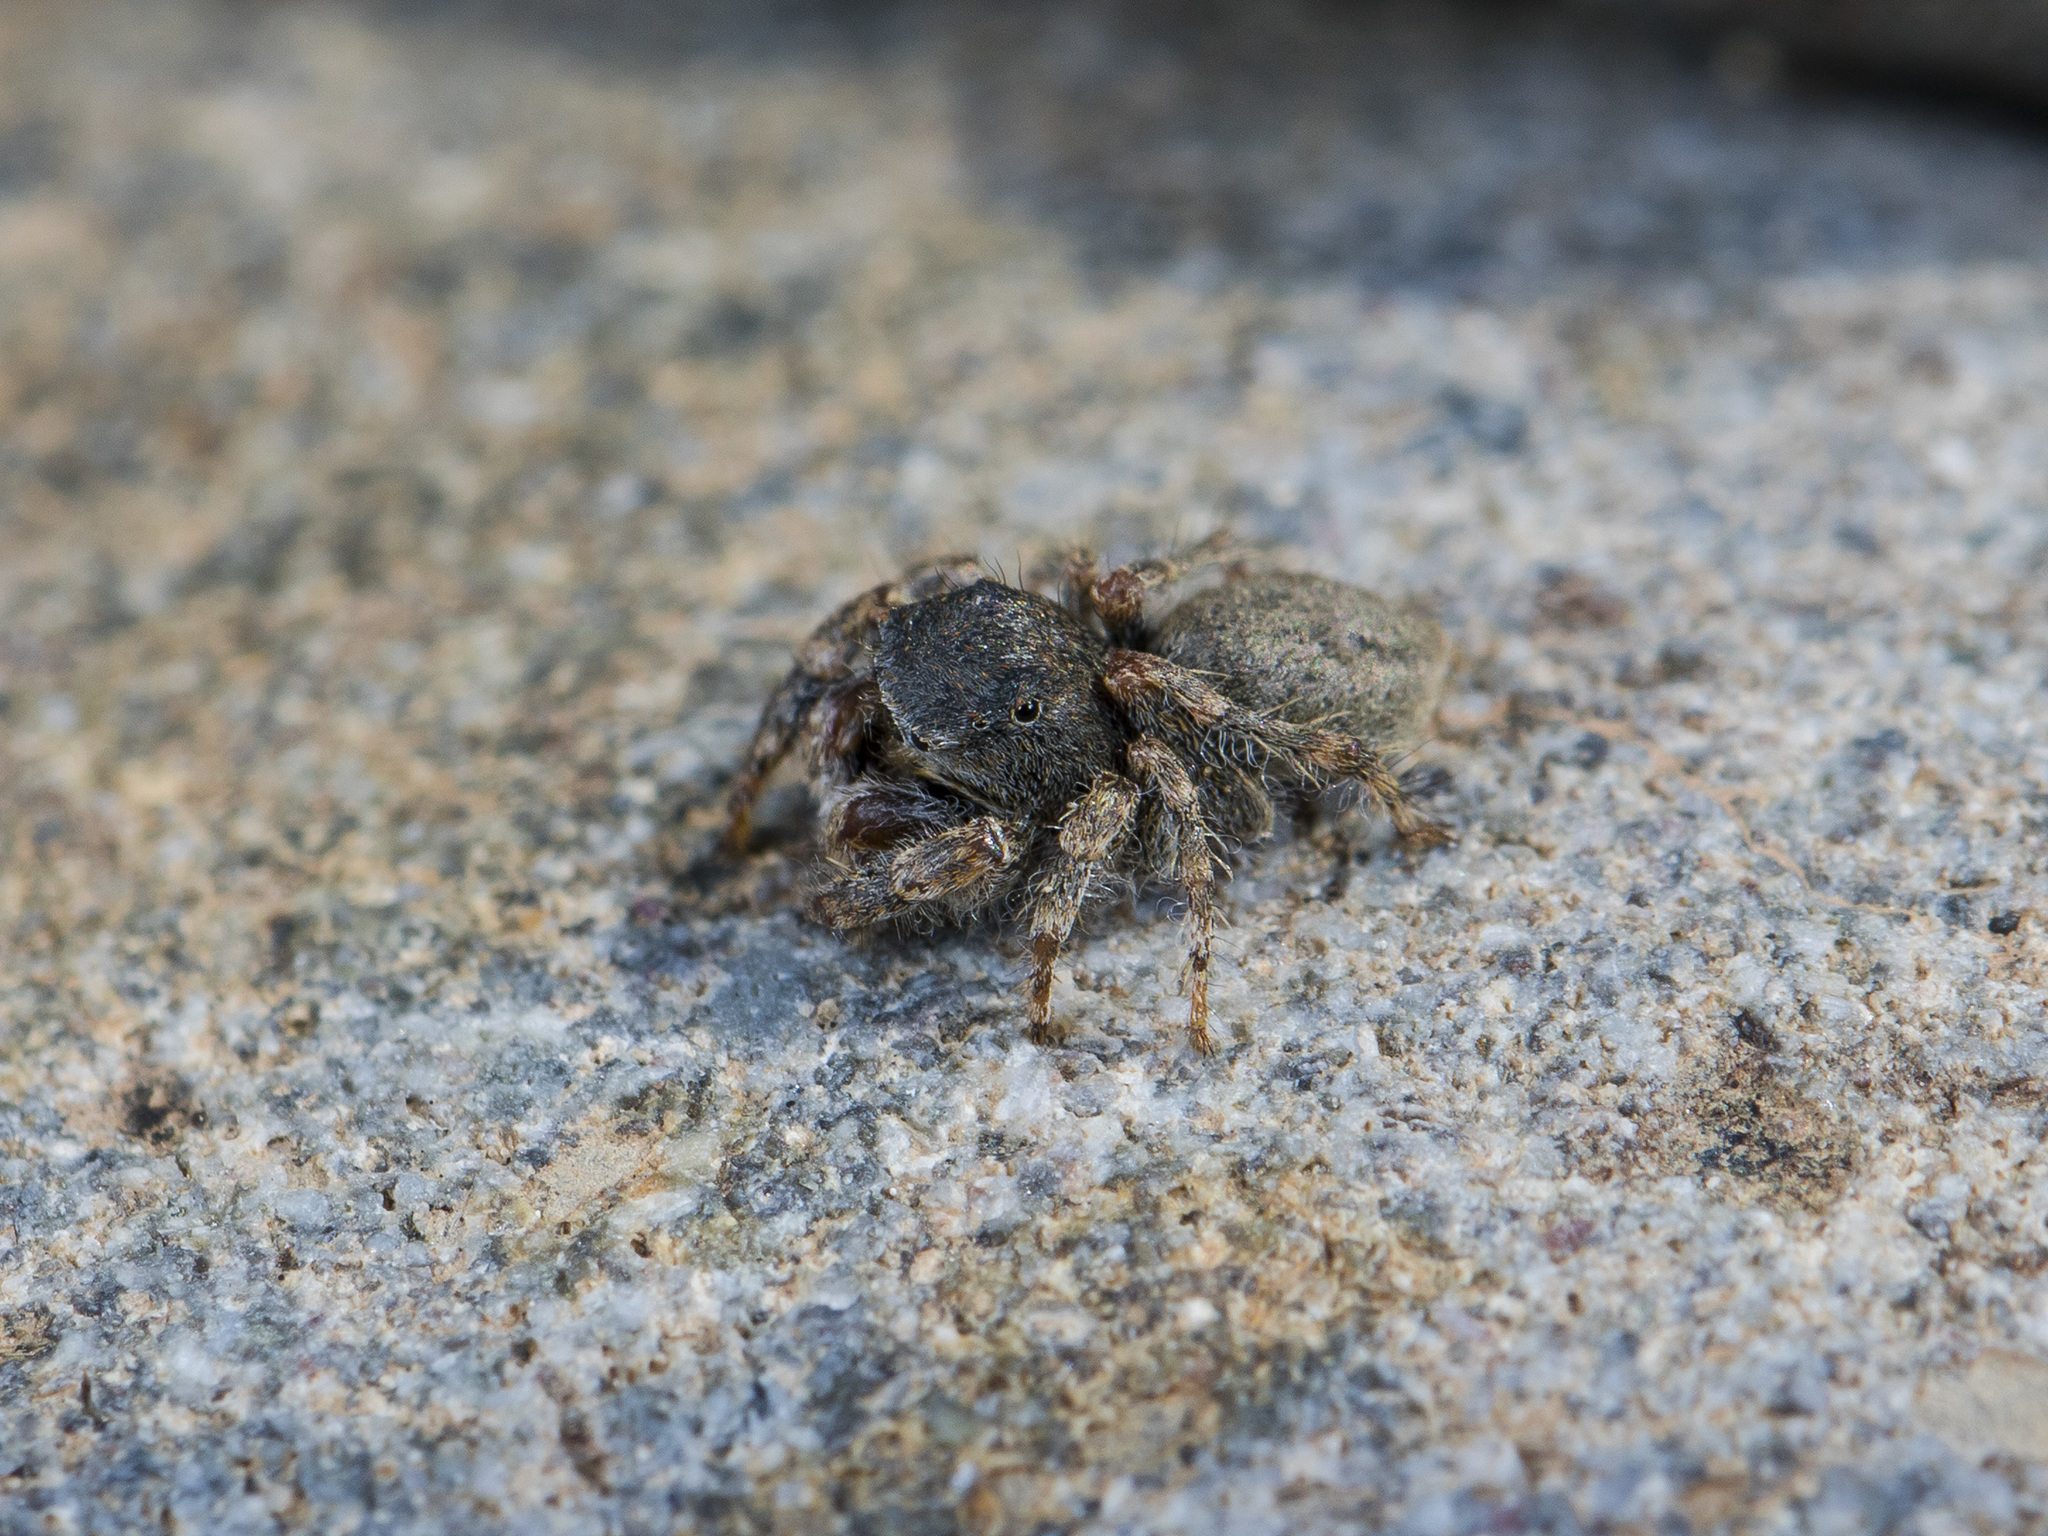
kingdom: Animalia
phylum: Arthropoda
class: Arachnida
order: Araneae
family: Salticidae
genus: Yllenus
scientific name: Yllenus zyuzini
